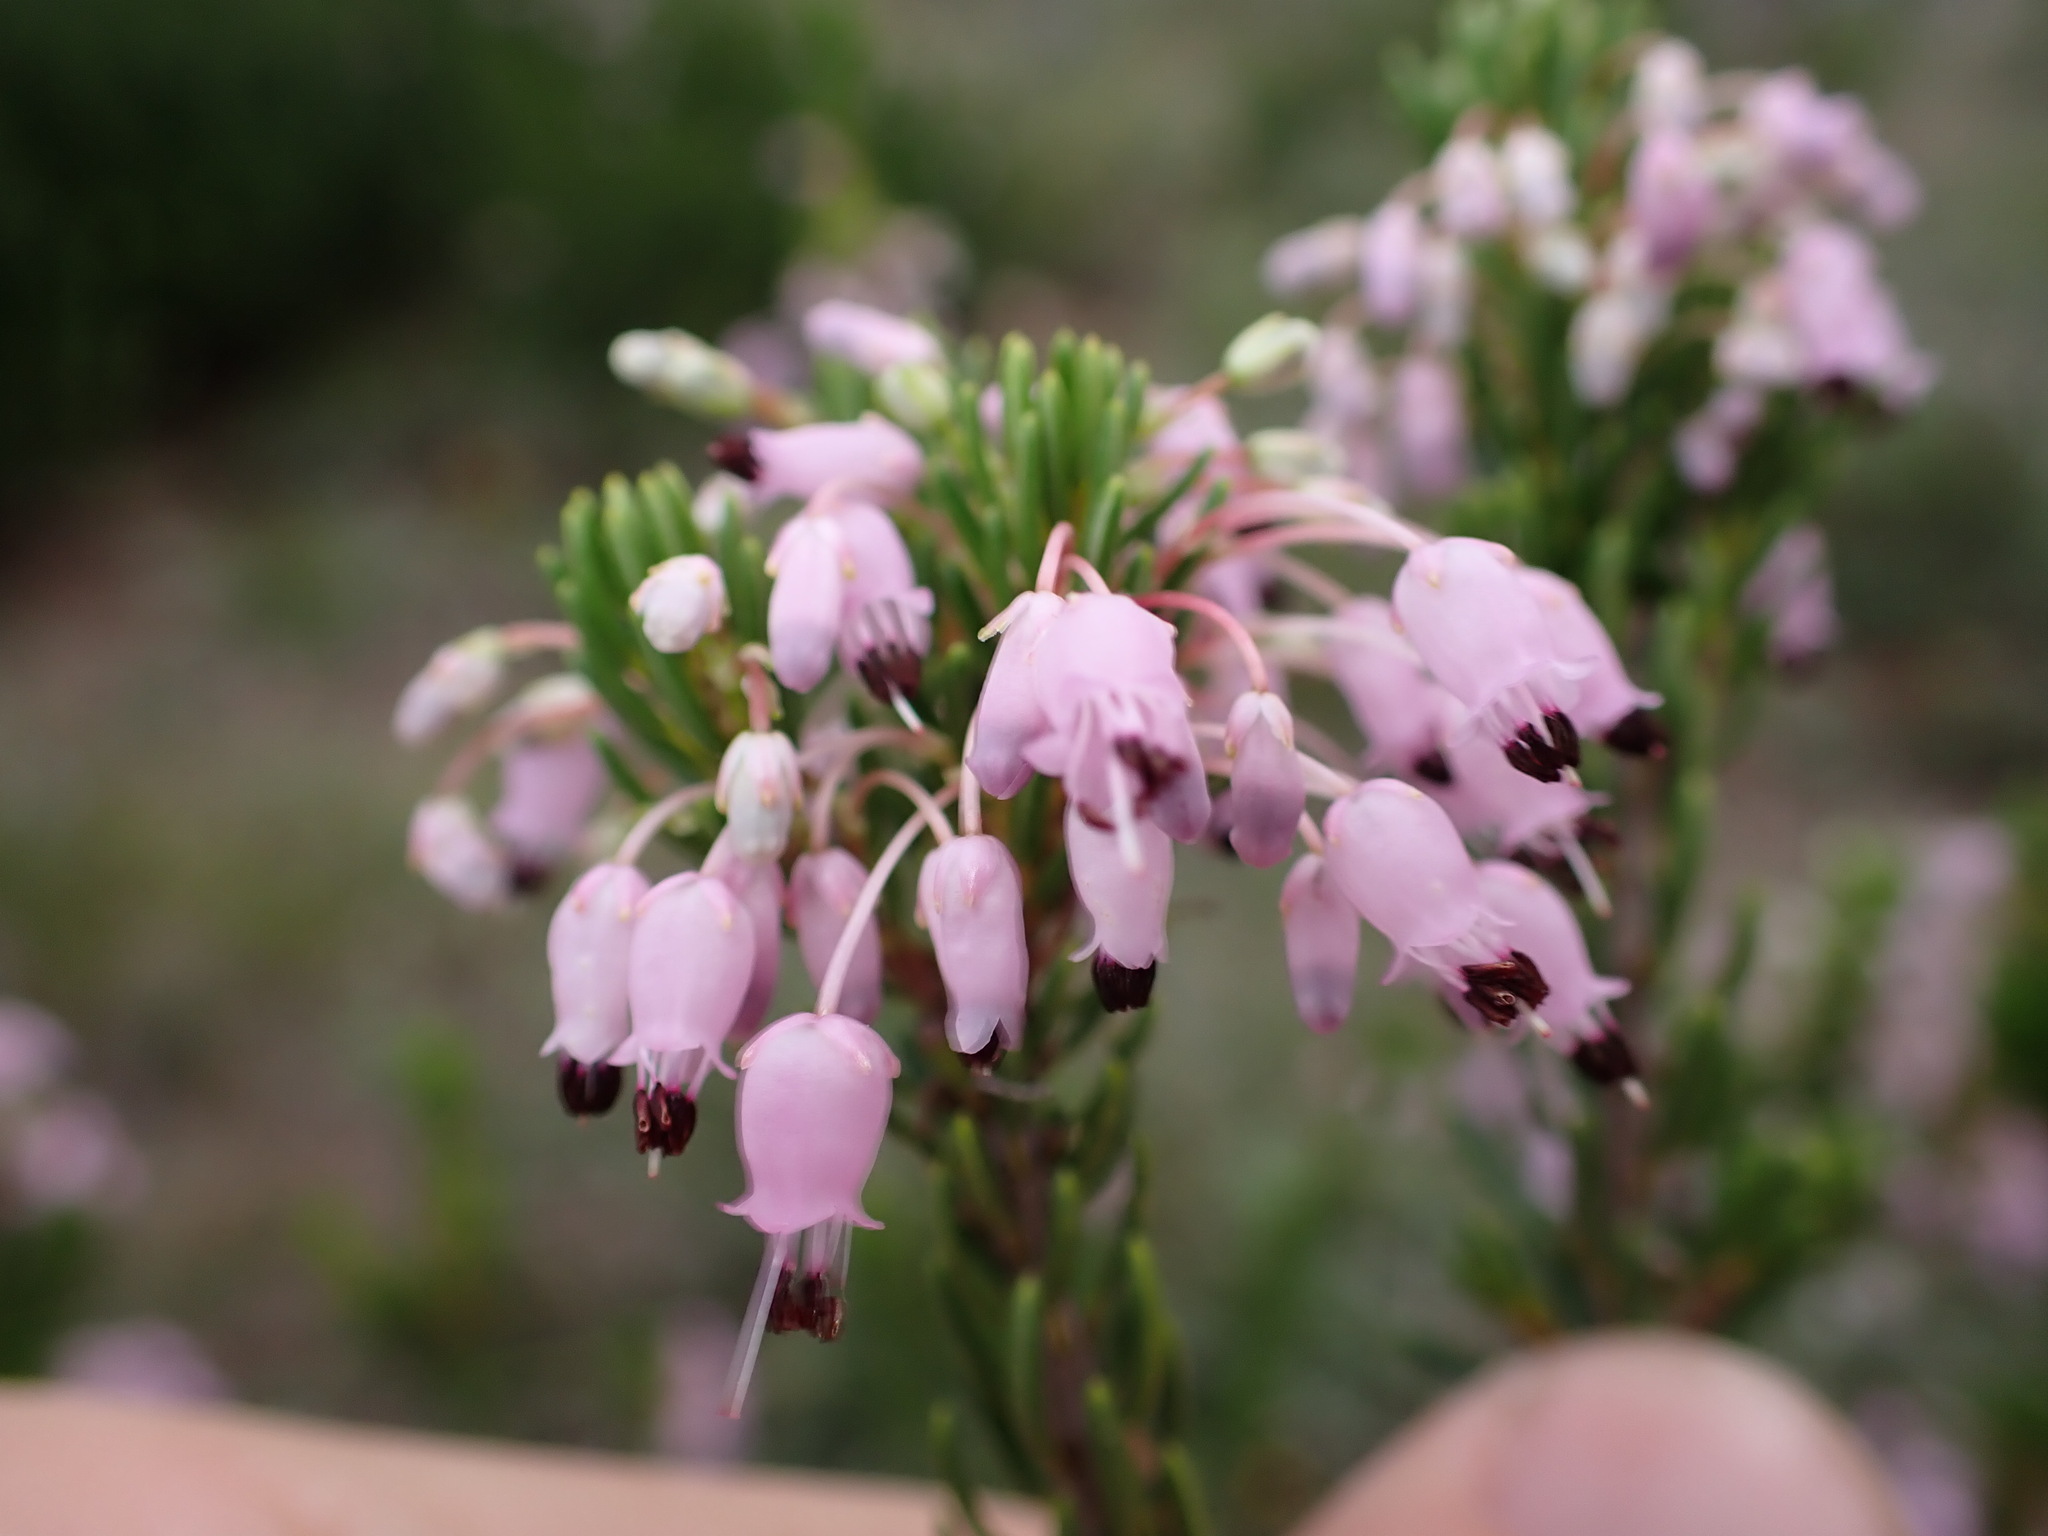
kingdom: Plantae
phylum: Tracheophyta
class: Magnoliopsida
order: Ericales
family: Ericaceae
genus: Erica
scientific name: Erica multiflora
